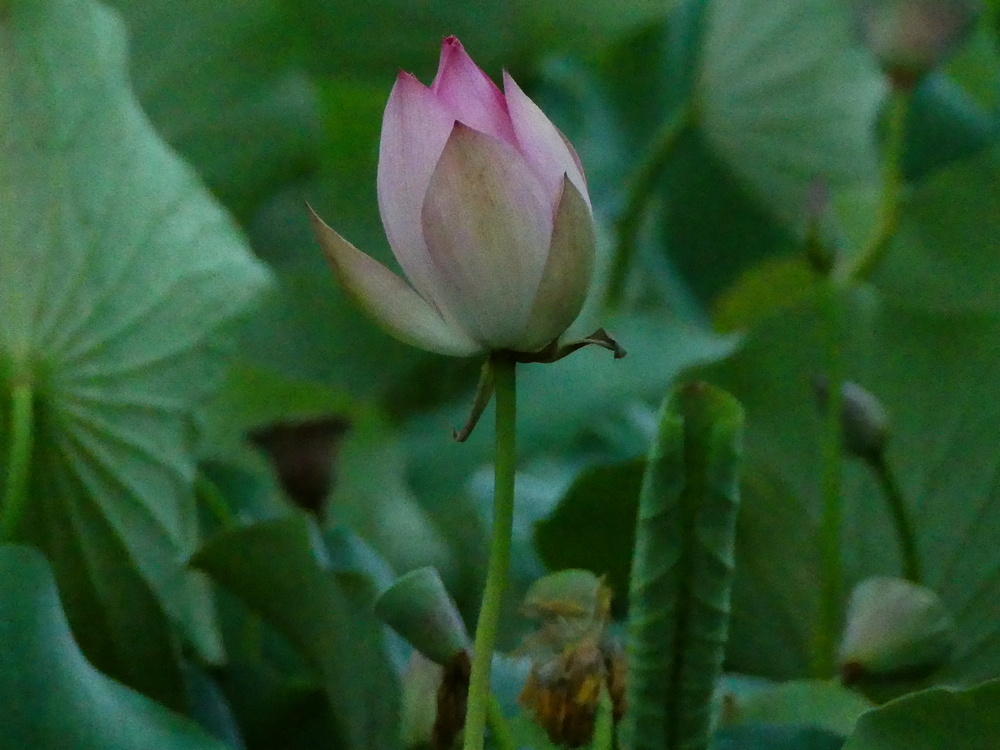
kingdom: Plantae
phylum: Tracheophyta
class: Magnoliopsida
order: Proteales
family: Nelumbonaceae
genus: Nelumbo
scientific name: Nelumbo nucifera
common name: Sacred lotus
